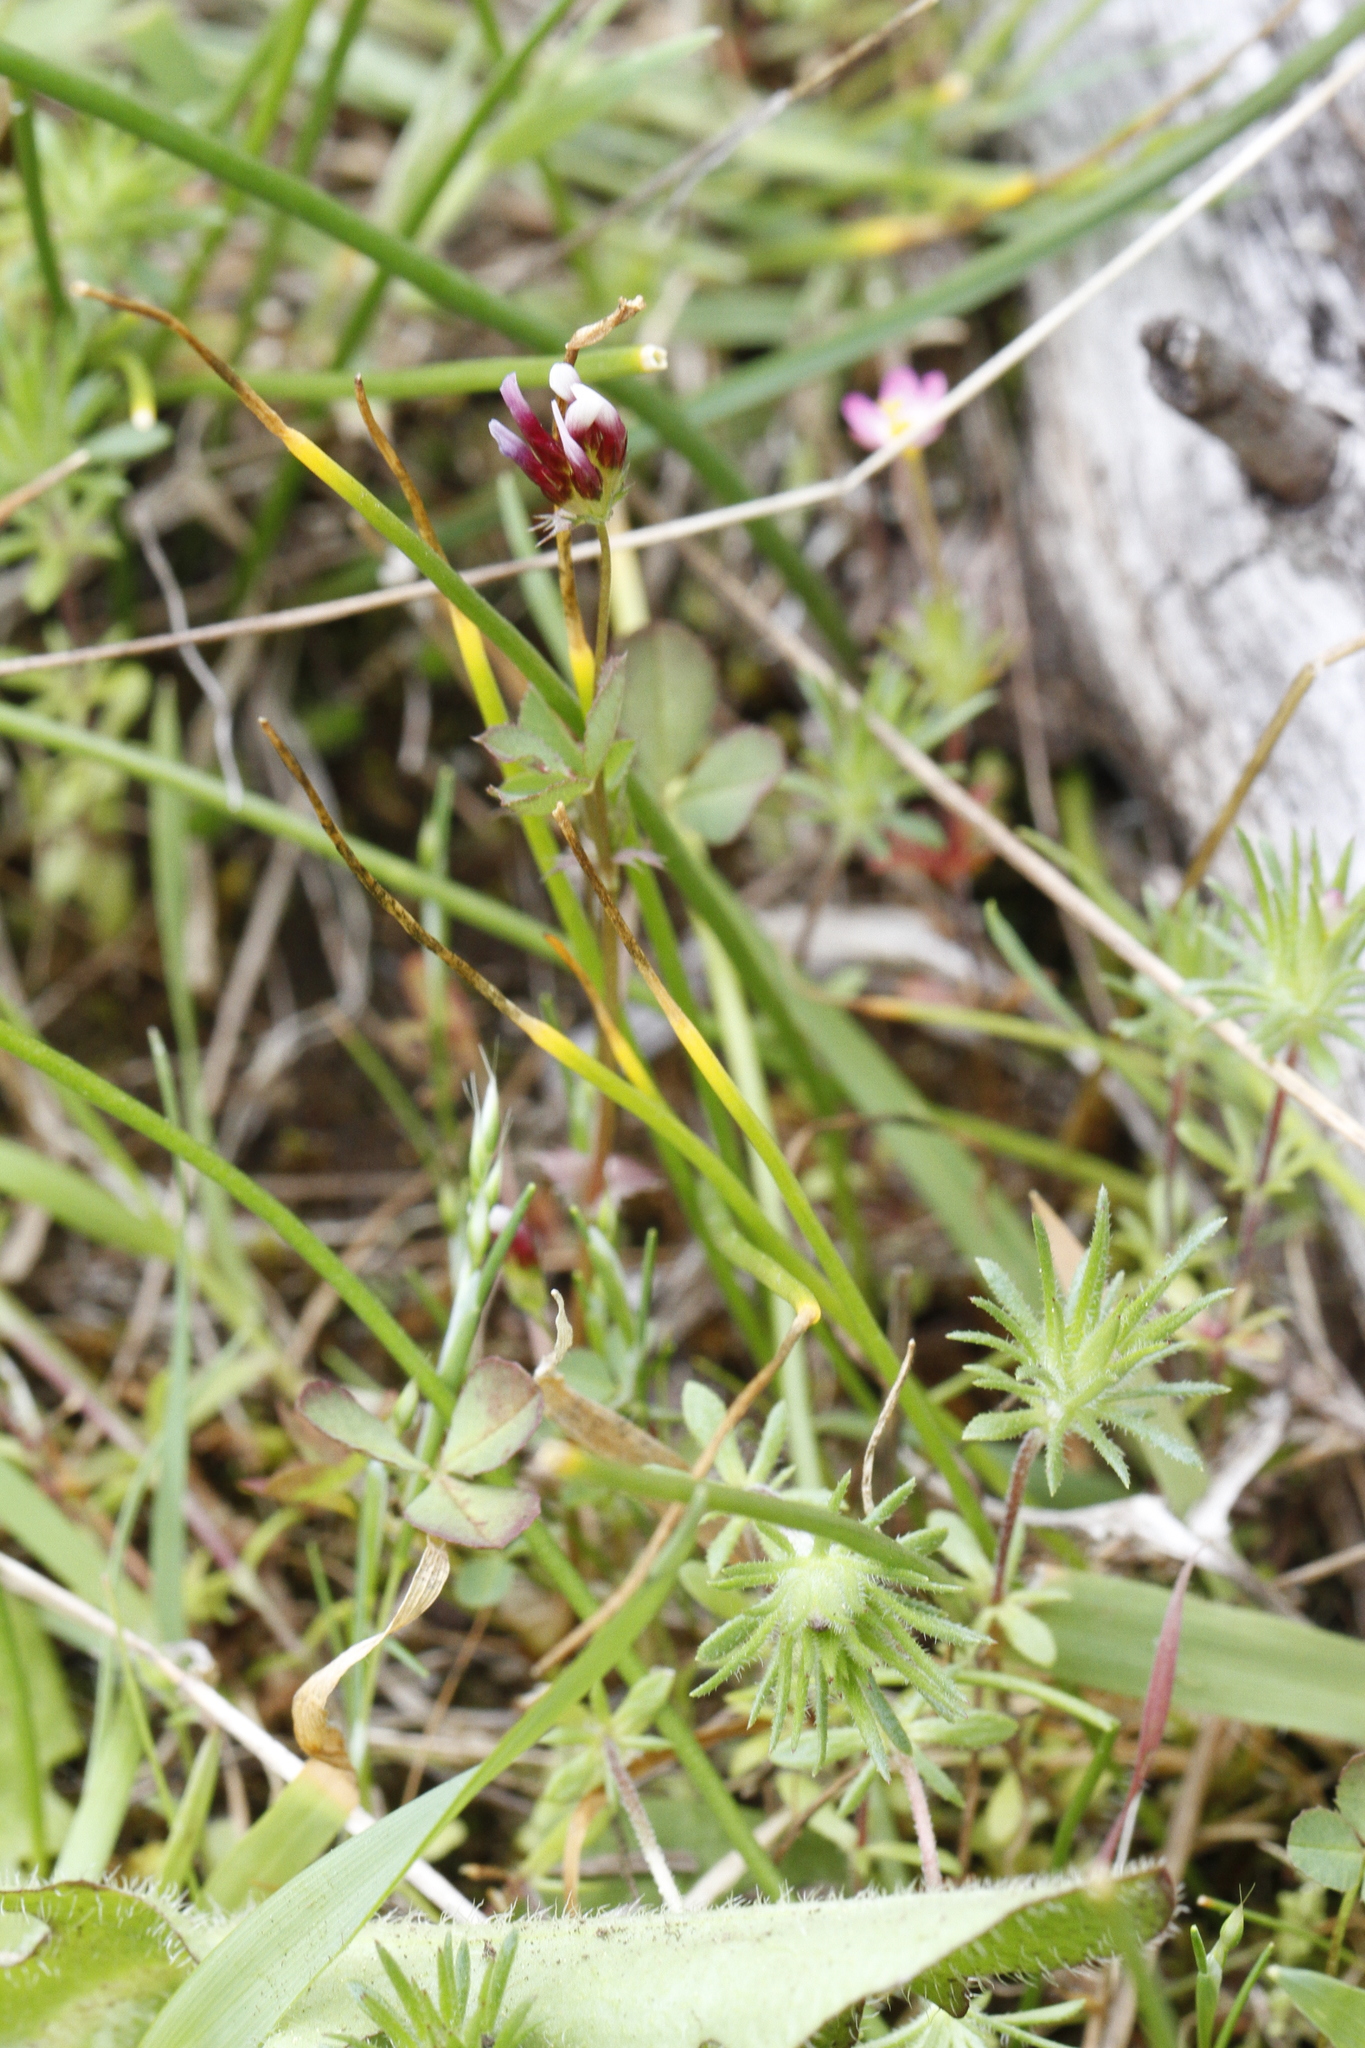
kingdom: Plantae
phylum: Tracheophyta
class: Magnoliopsida
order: Fabales
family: Fabaceae
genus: Trifolium
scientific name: Trifolium variegatum
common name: Whitetip clover
